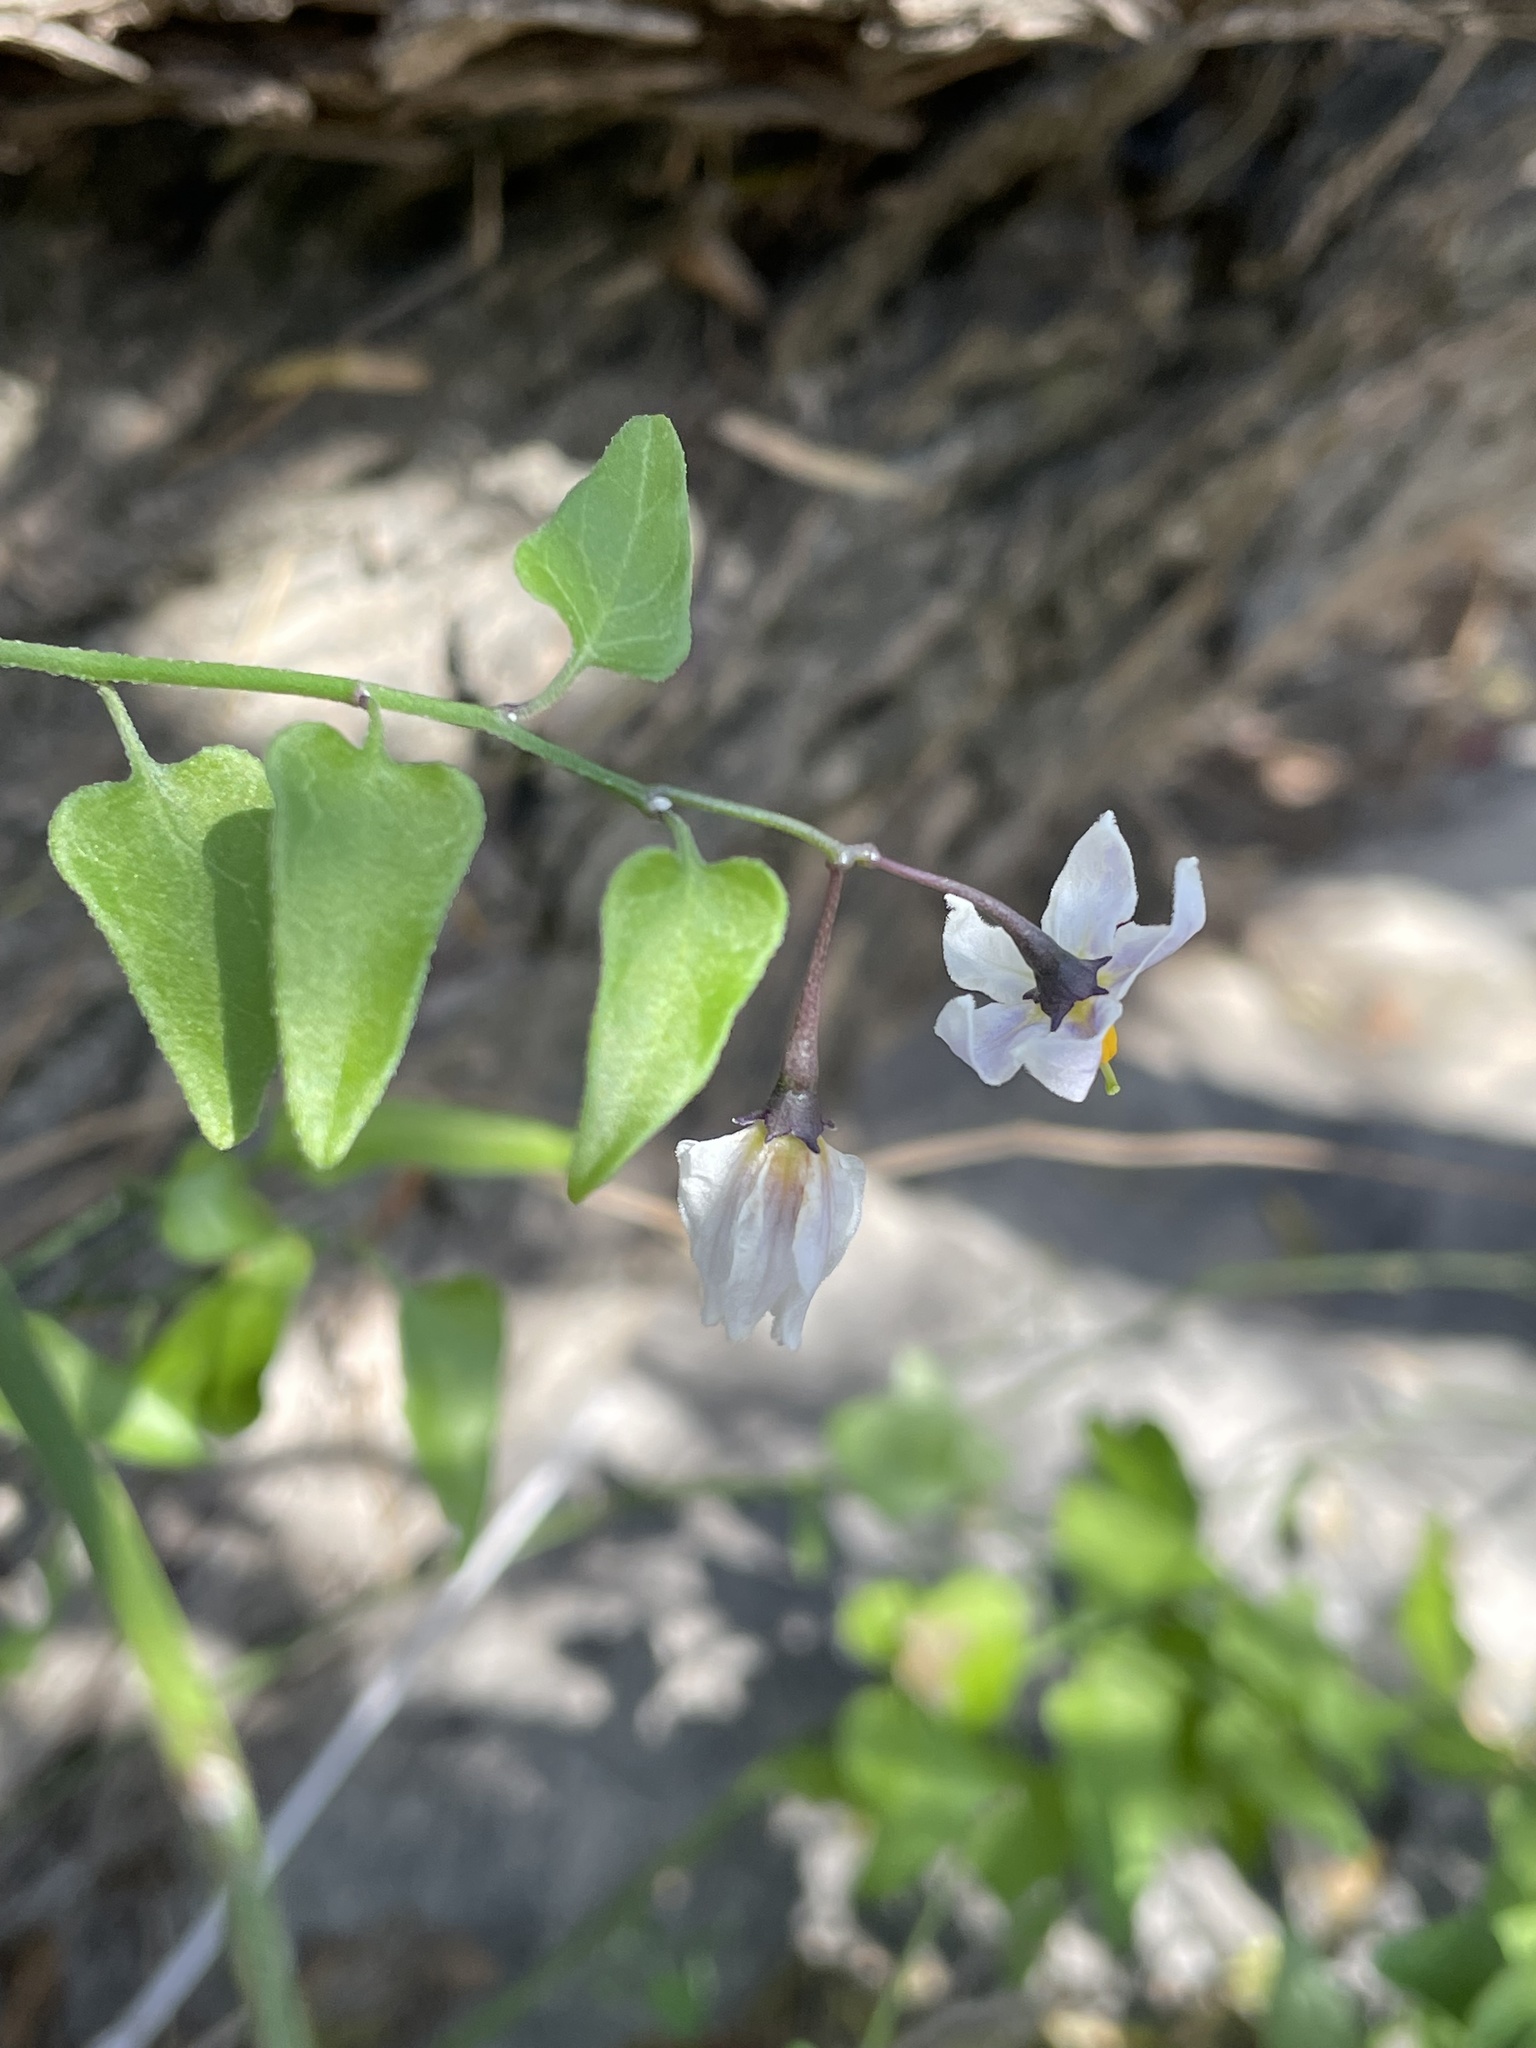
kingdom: Plantae
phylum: Tracheophyta
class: Magnoliopsida
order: Solanales
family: Solanaceae
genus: Solanum
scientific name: Solanum triquetrum
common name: Texas nightshade
